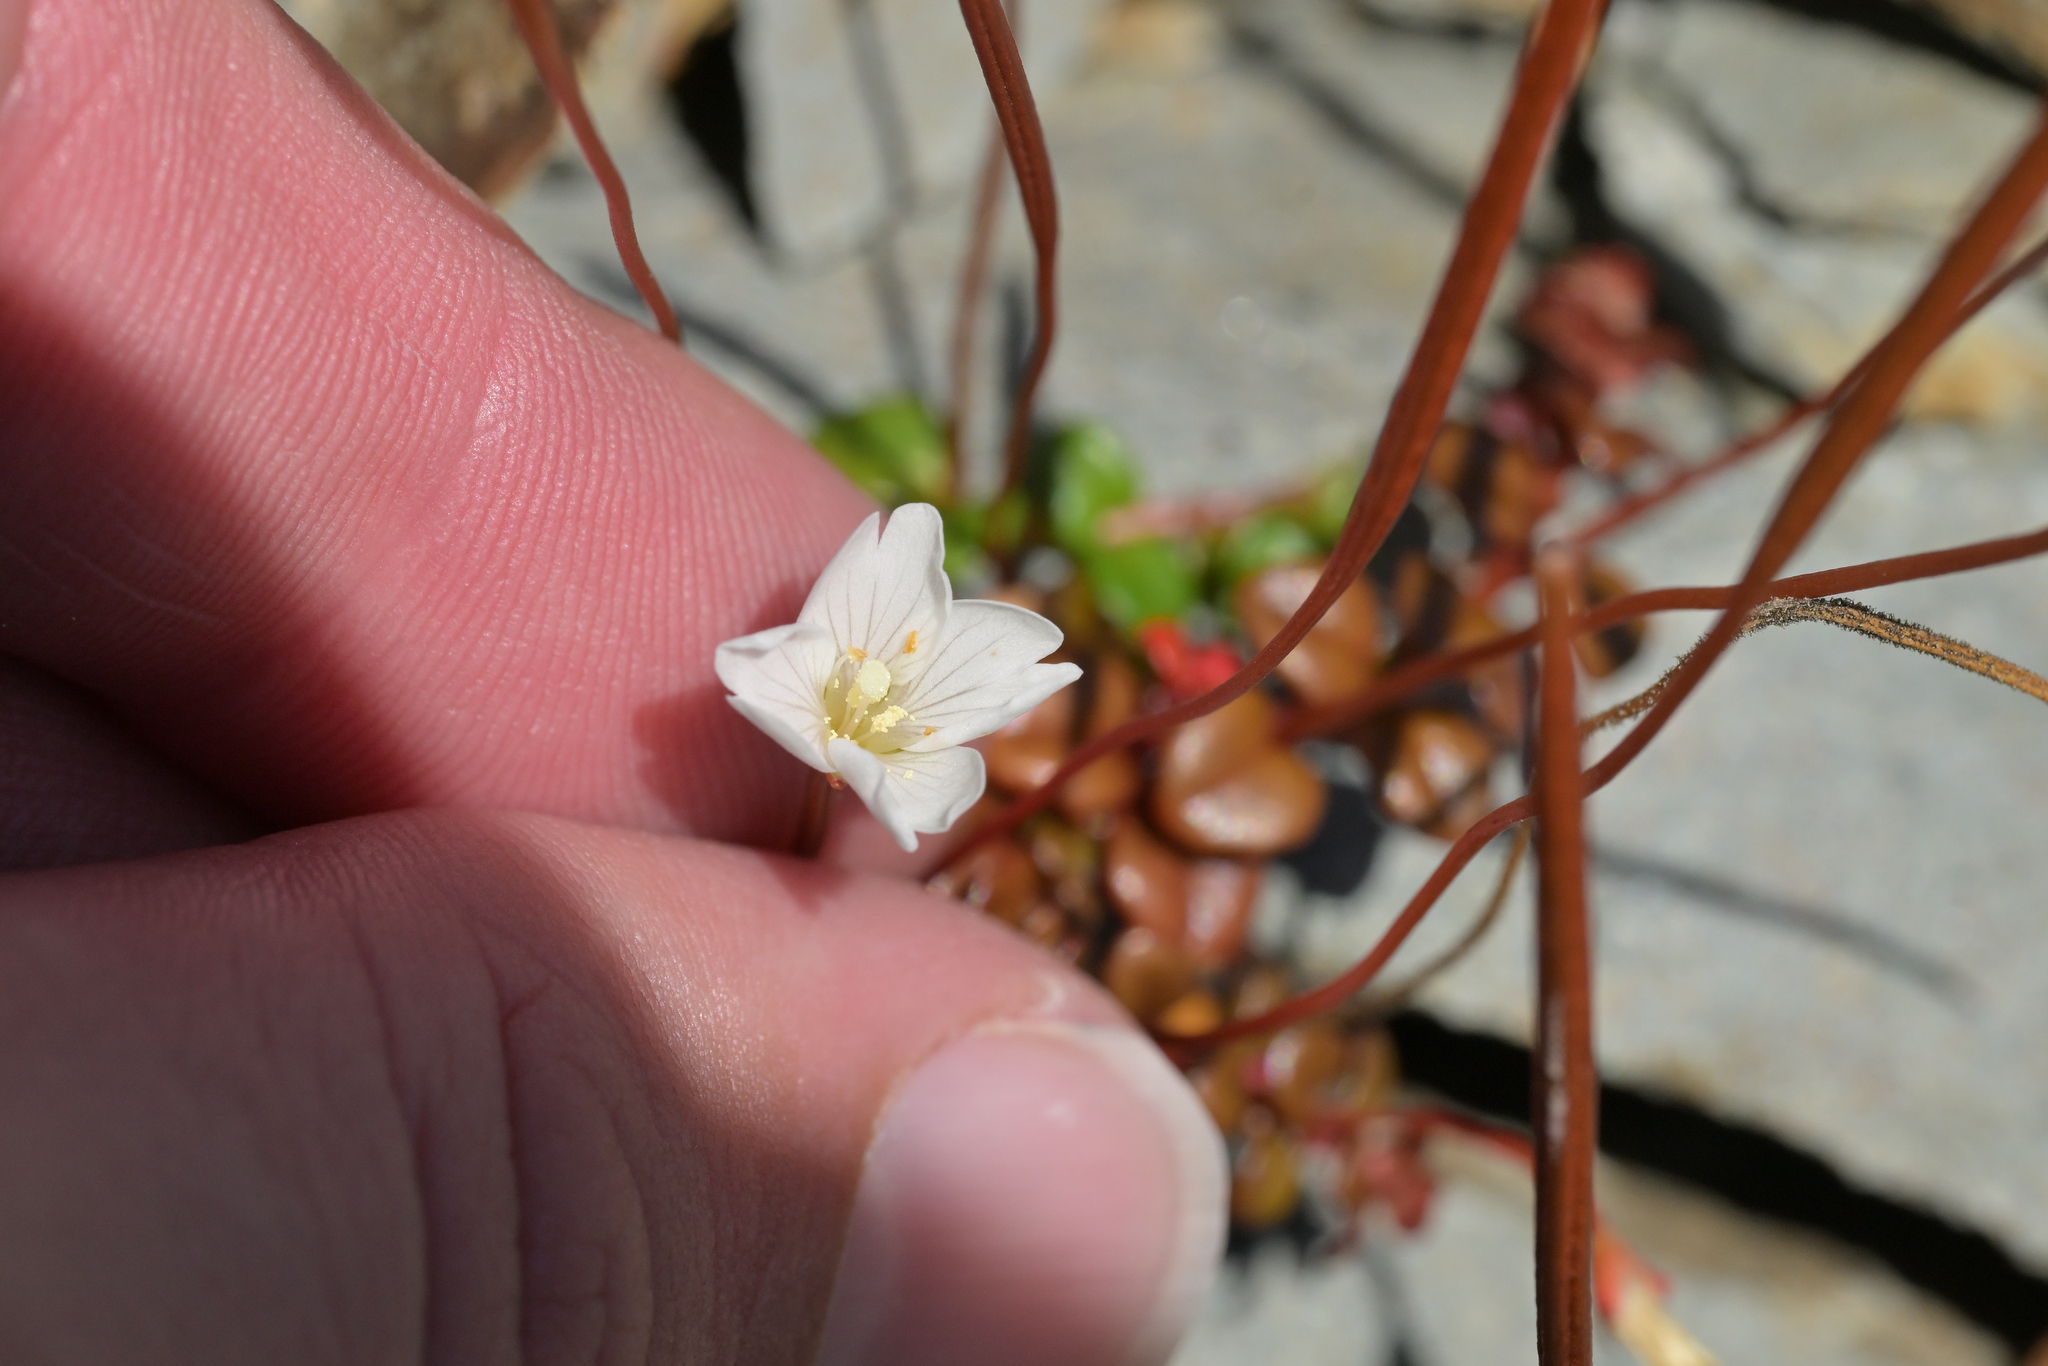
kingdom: Plantae
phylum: Tracheophyta
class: Magnoliopsida
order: Myrtales
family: Onagraceae
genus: Epilobium
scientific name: Epilobium pernitens
